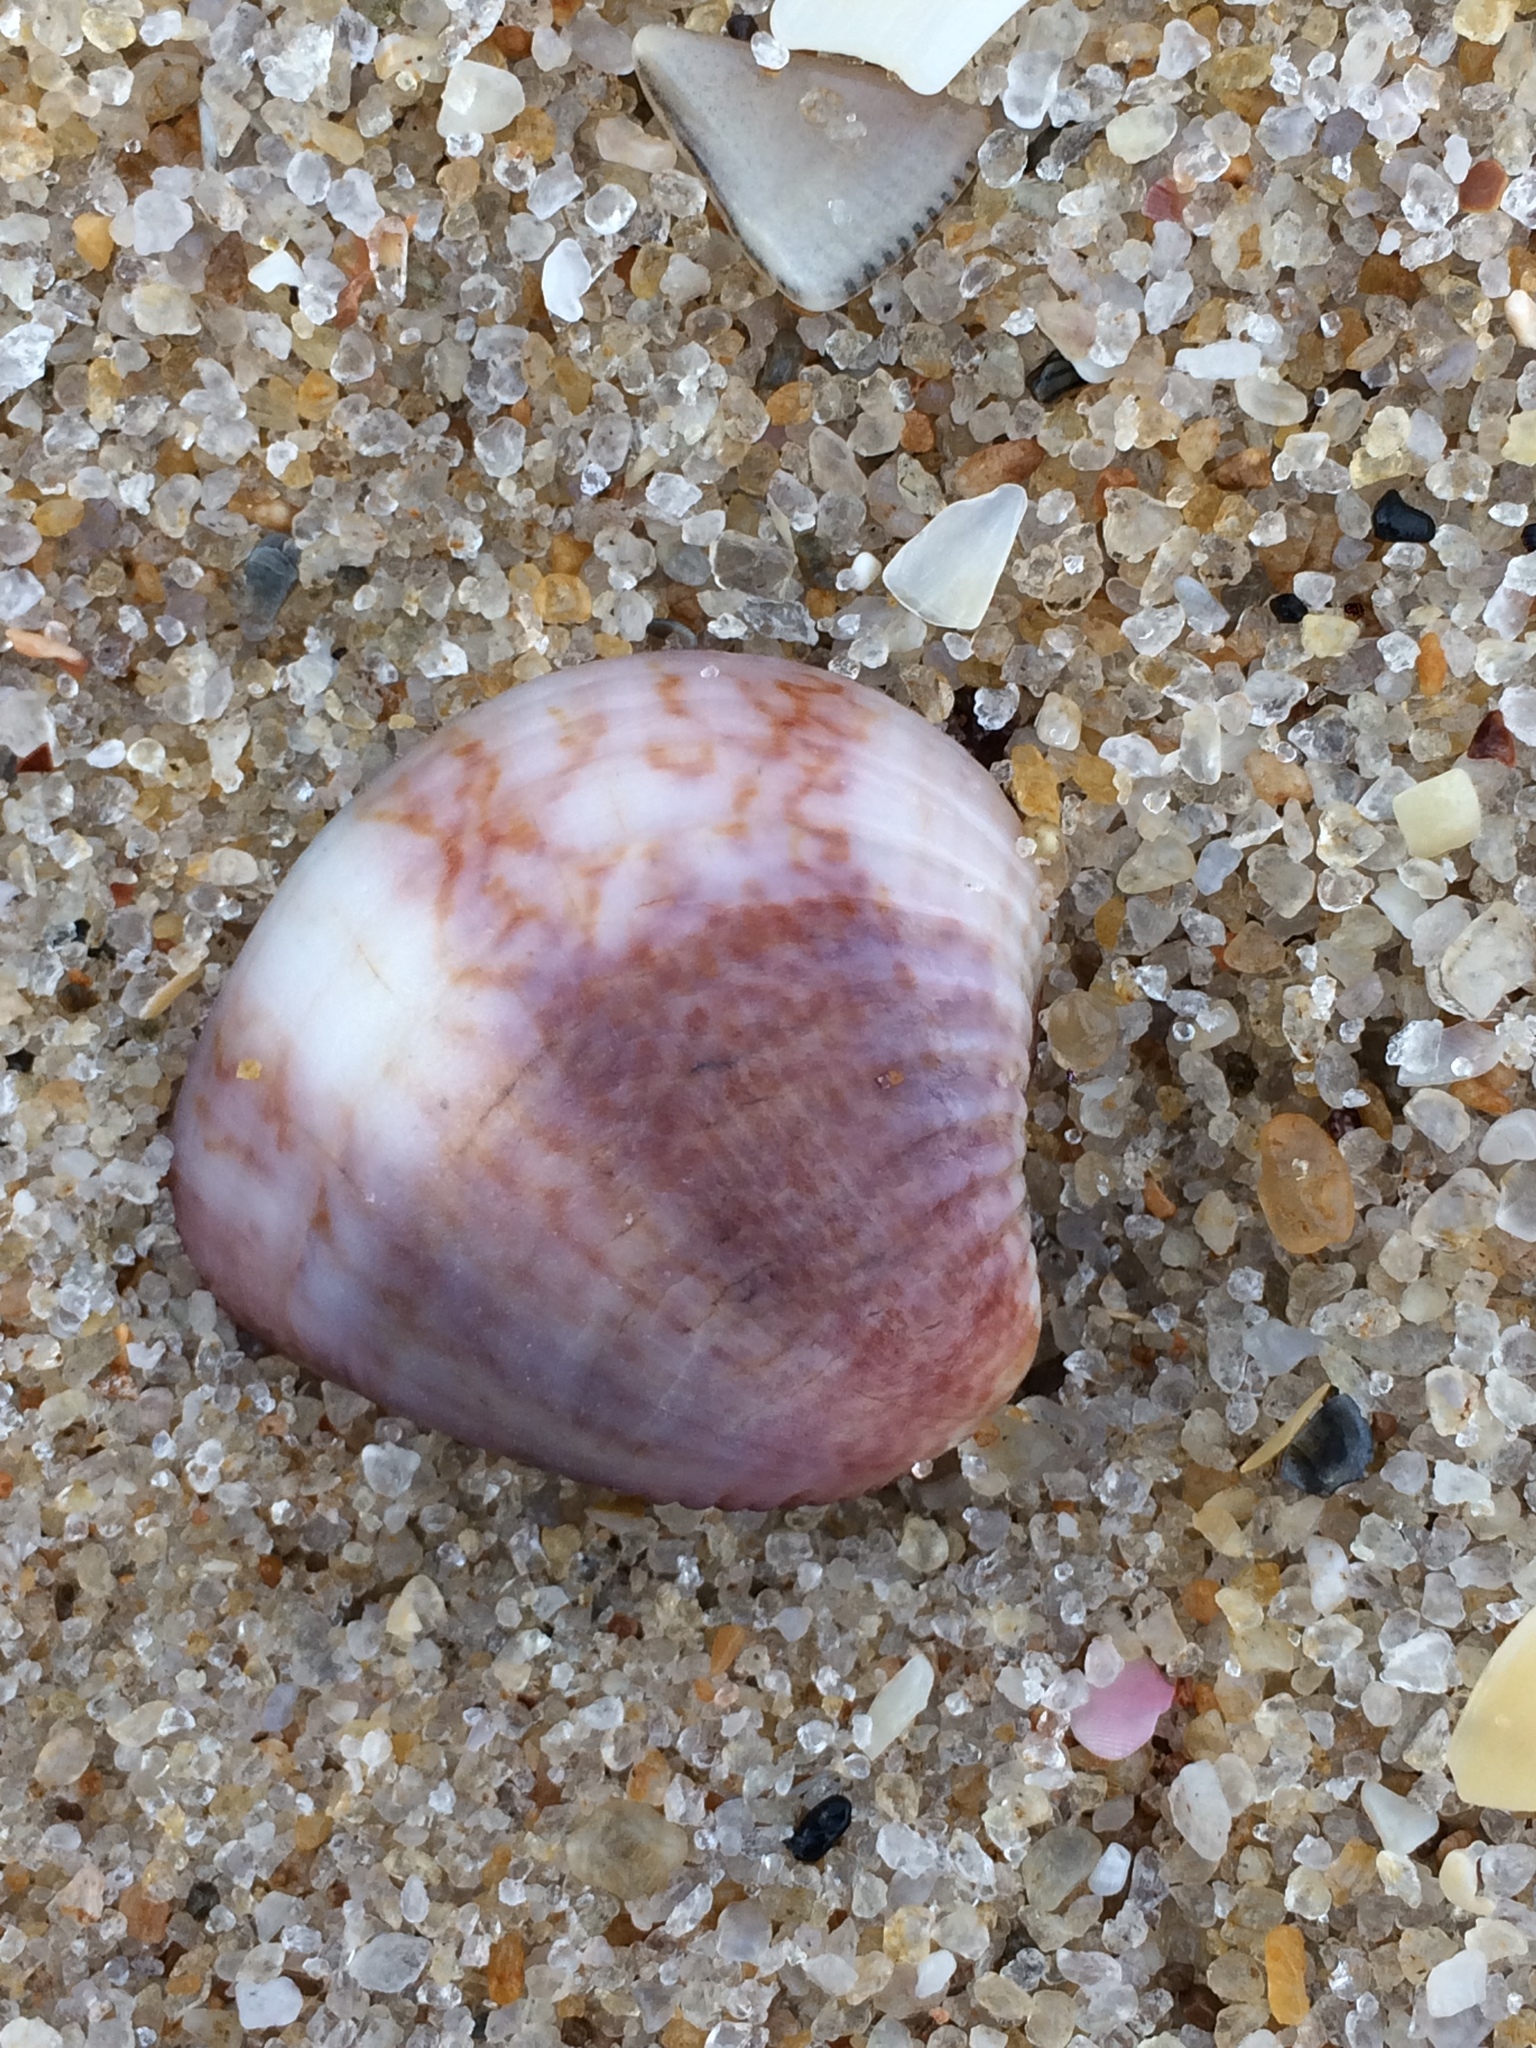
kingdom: Animalia
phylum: Mollusca
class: Bivalvia
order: Venerida
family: Veneridae
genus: Anomalocardia
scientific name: Anomalocardia flexuosa
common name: Carib pointed venus
